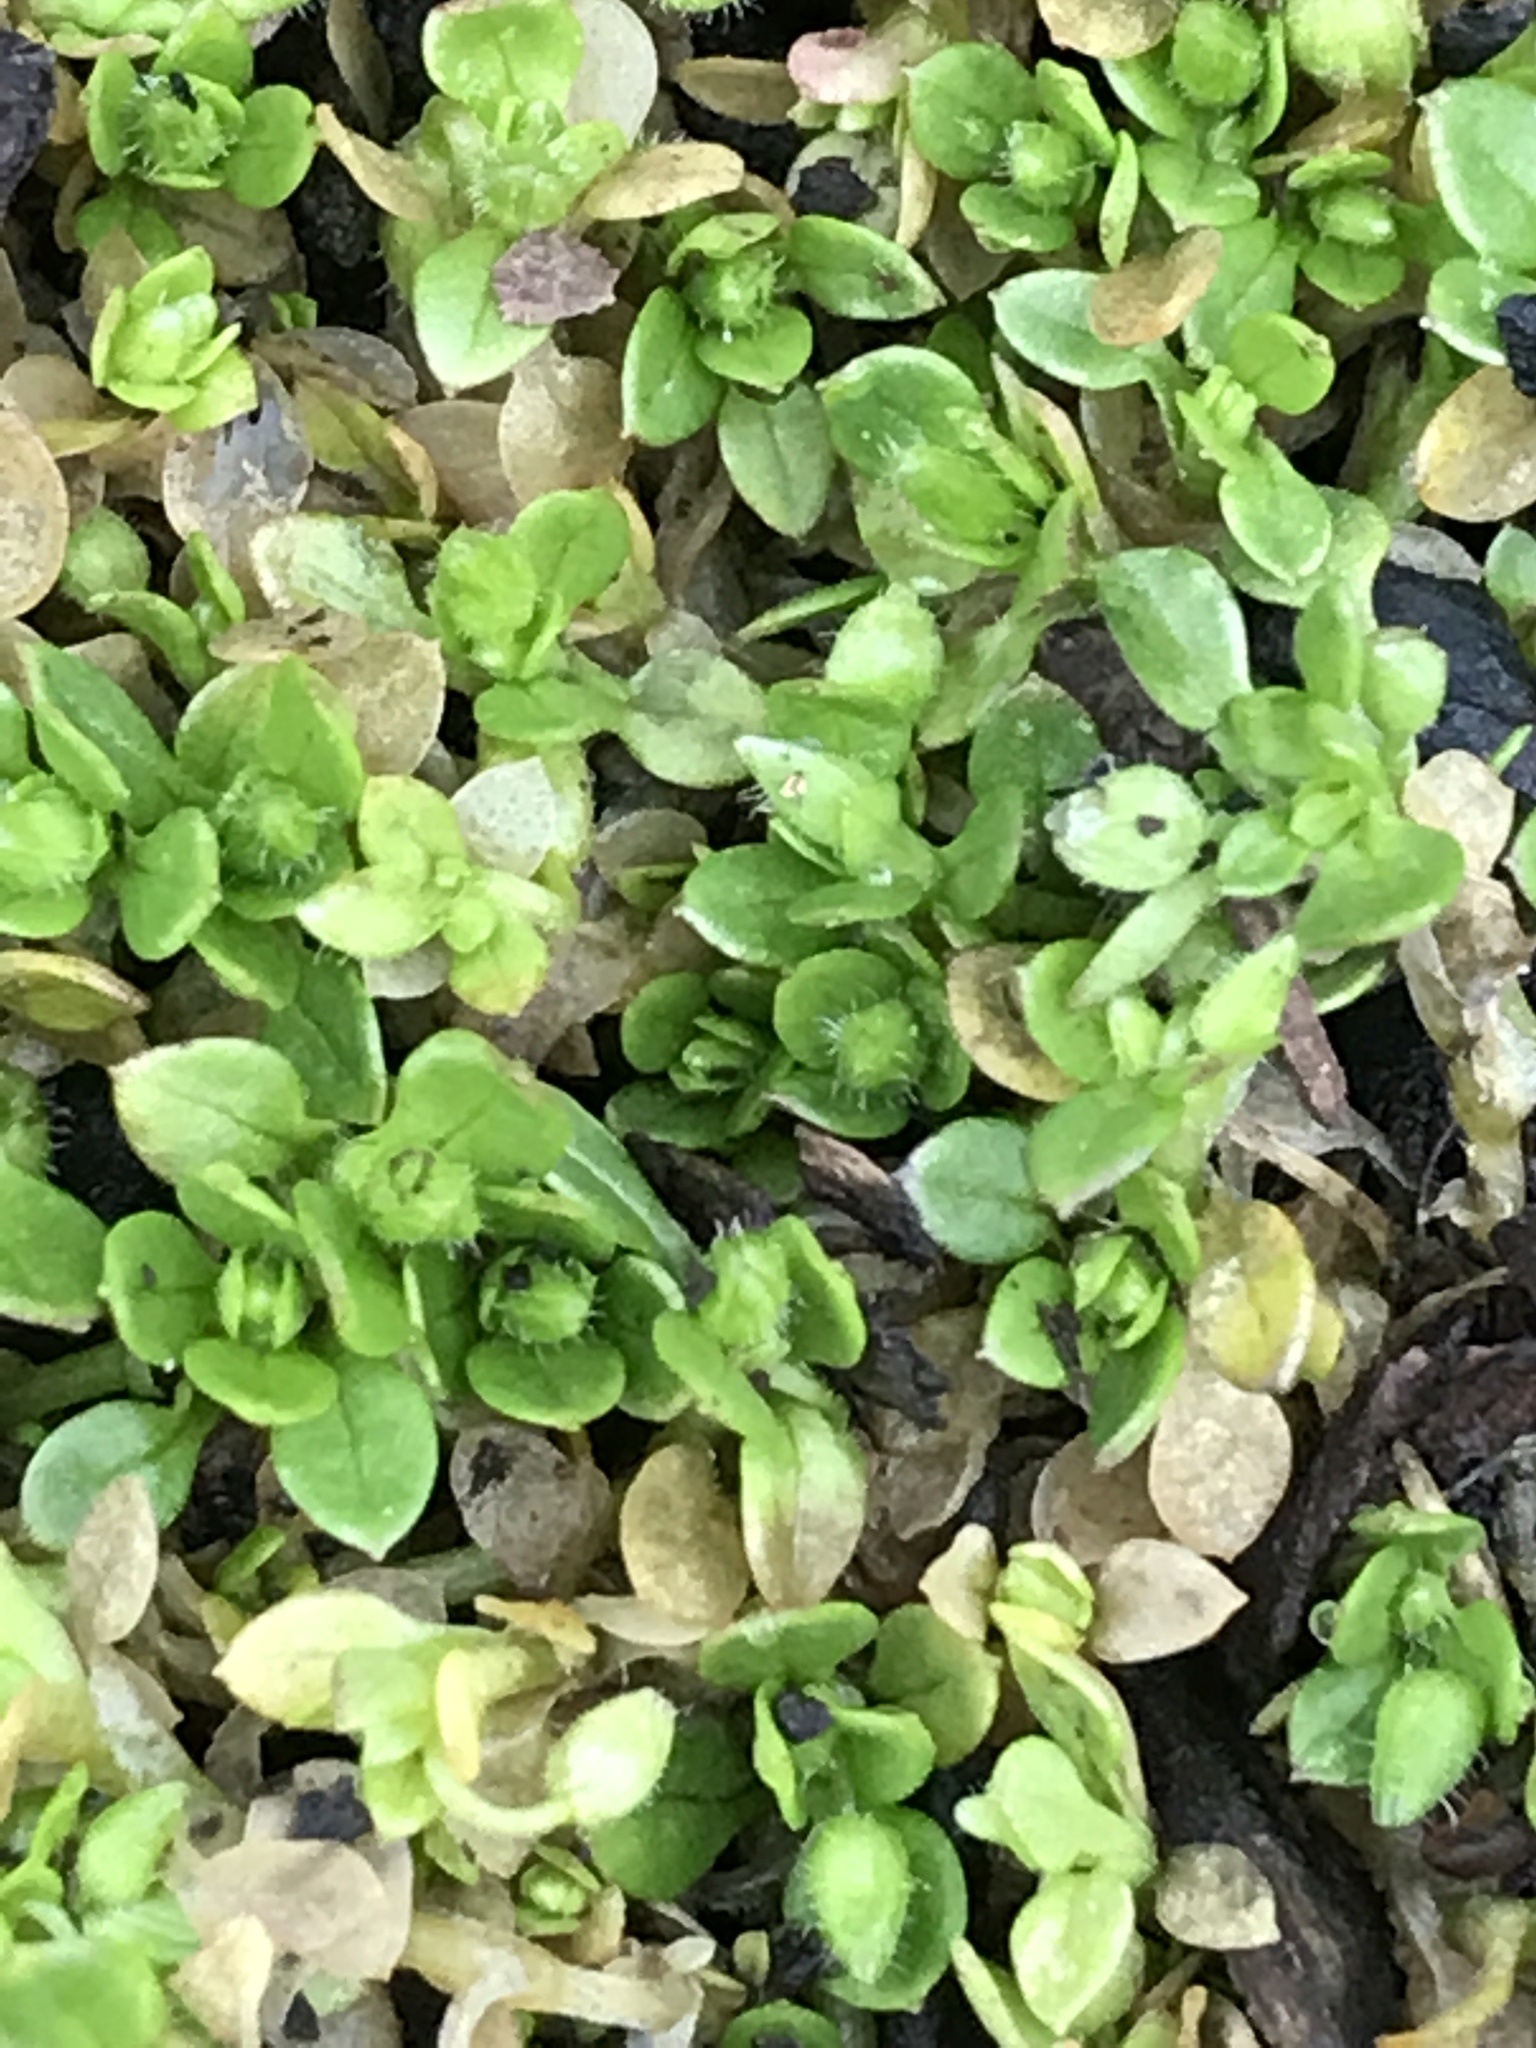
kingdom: Plantae
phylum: Tracheophyta
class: Magnoliopsida
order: Caryophyllales
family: Caryophyllaceae
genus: Stellaria
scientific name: Stellaria media
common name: Common chickweed
